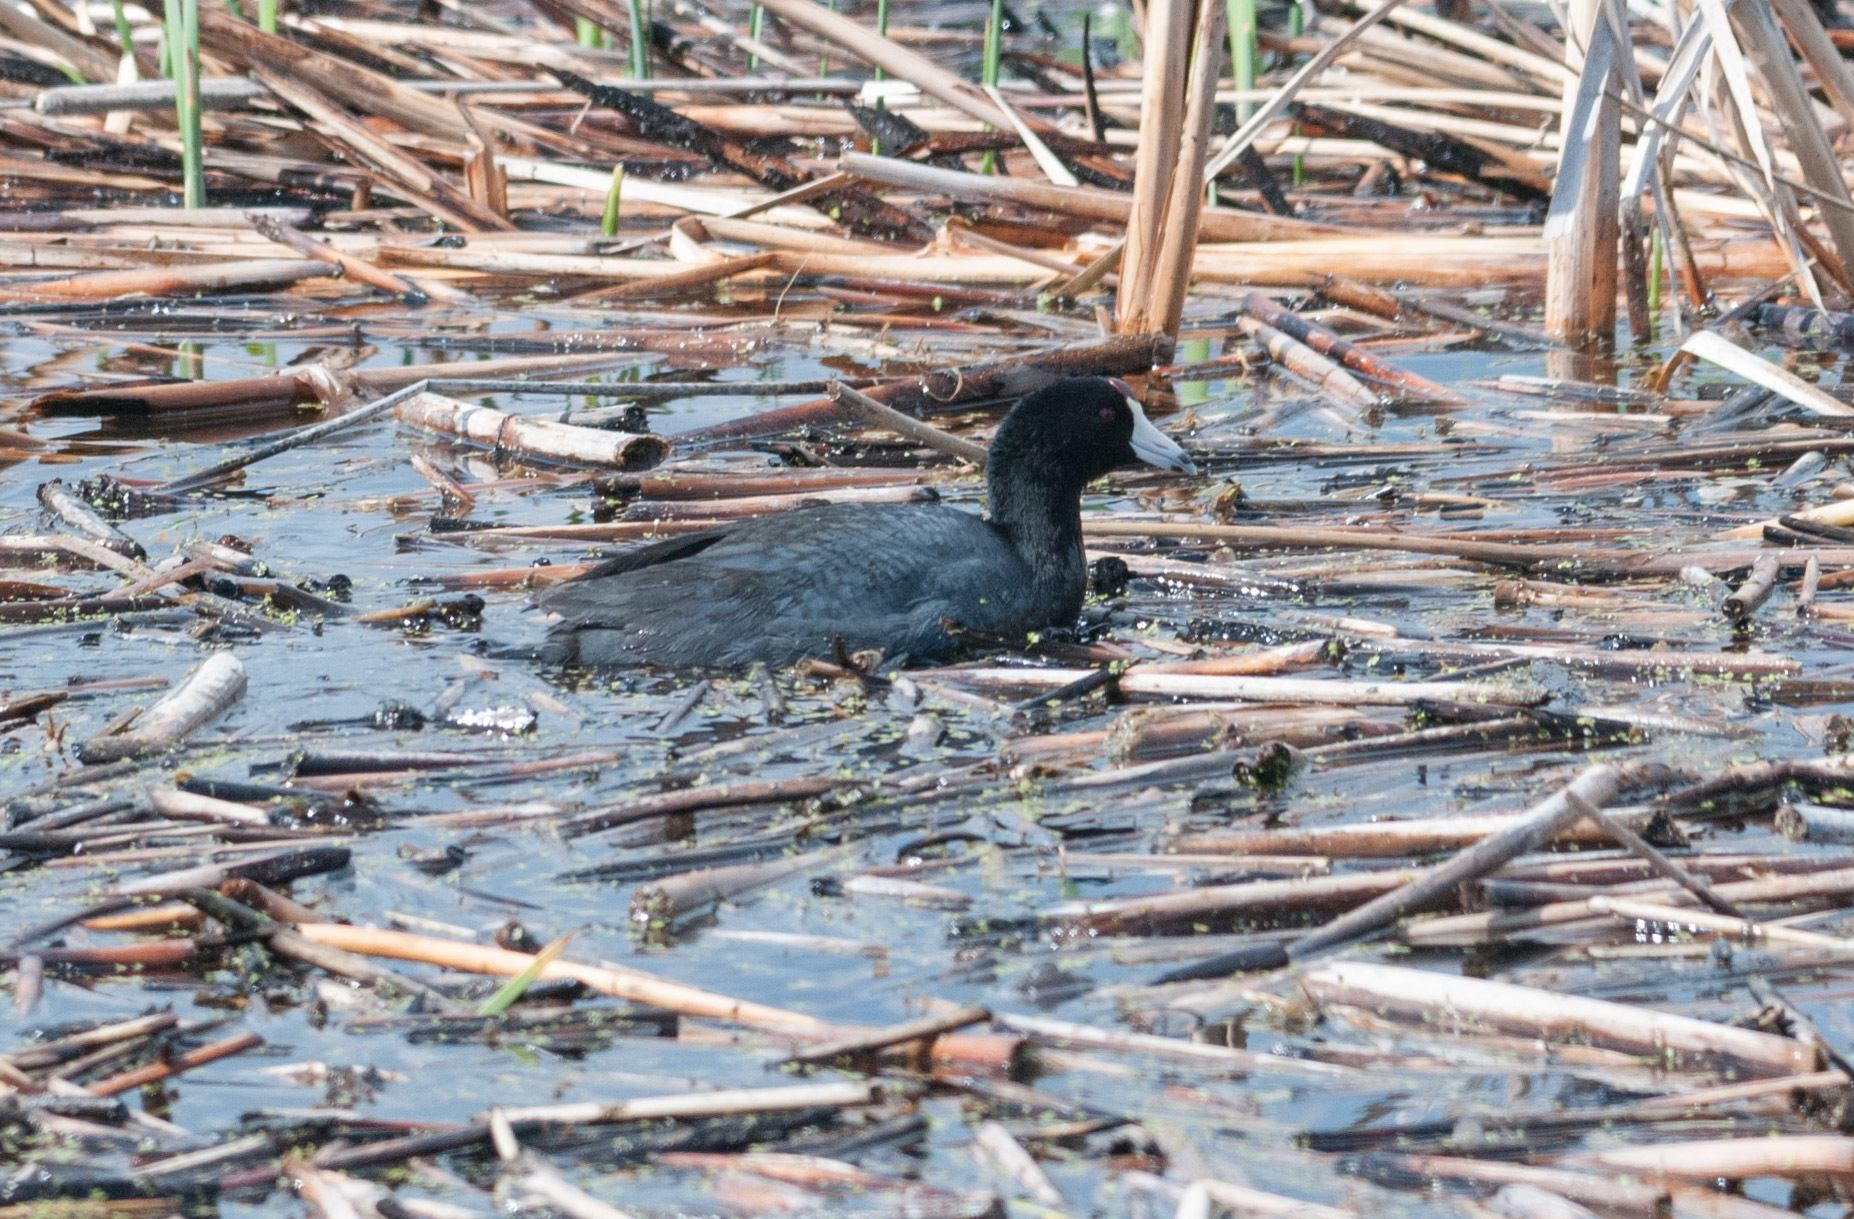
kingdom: Animalia
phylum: Chordata
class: Aves
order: Gruiformes
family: Rallidae
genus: Fulica
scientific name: Fulica americana
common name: American coot
